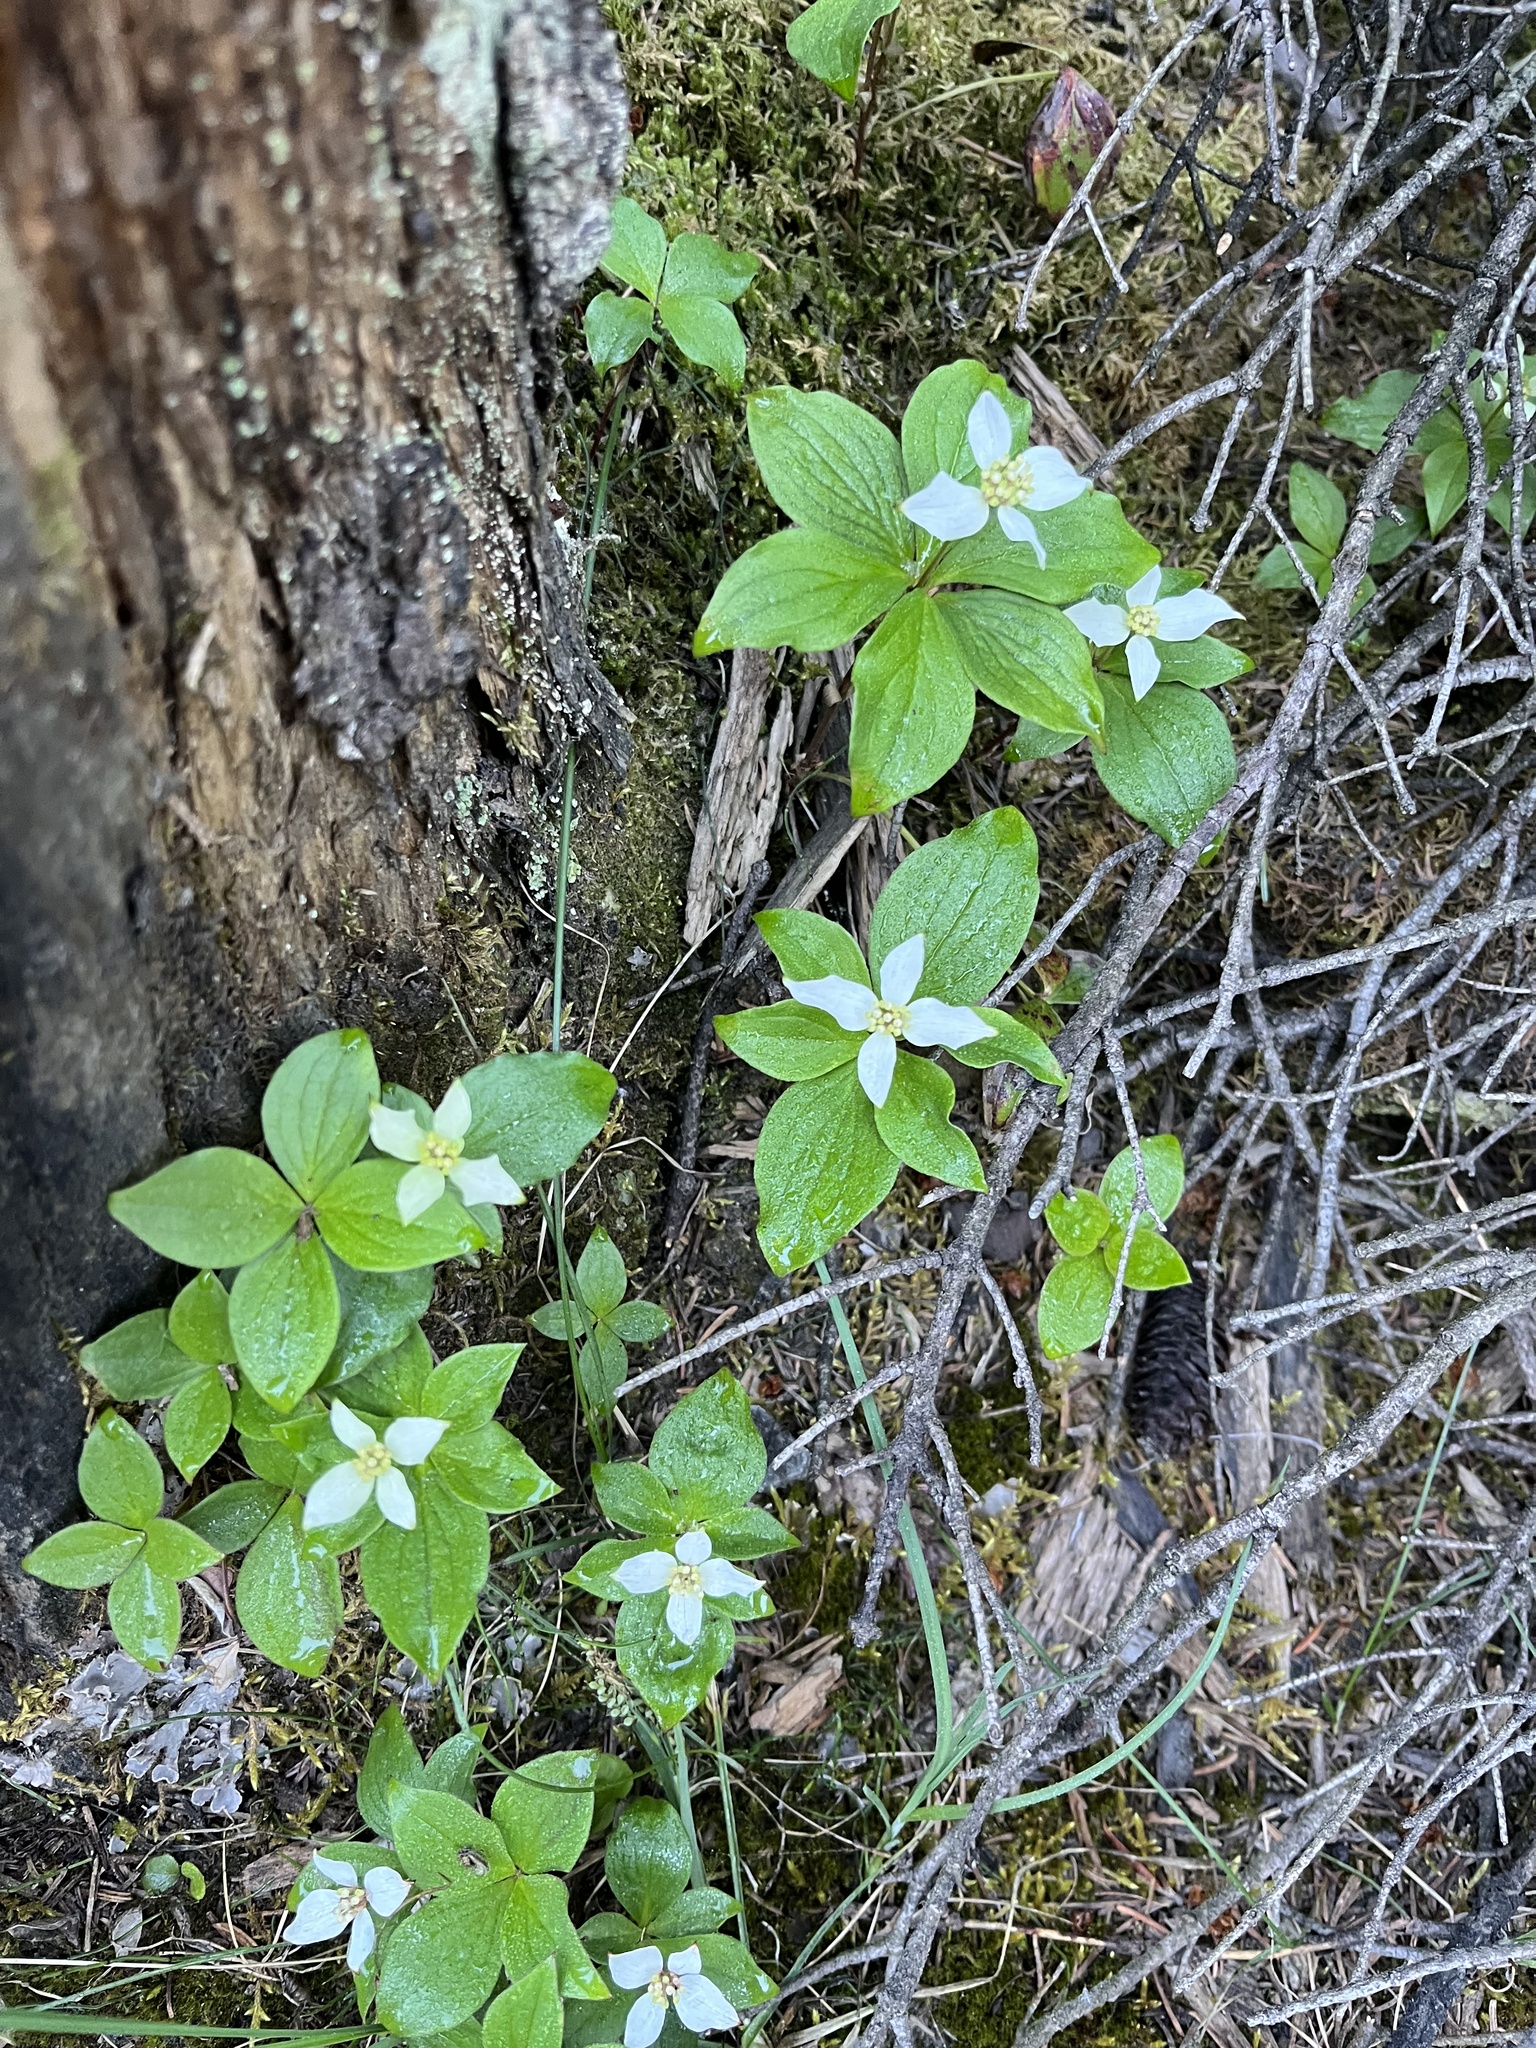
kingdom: Plantae
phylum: Tracheophyta
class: Magnoliopsida
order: Cornales
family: Cornaceae
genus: Cornus
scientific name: Cornus canadensis
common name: Creeping dogwood
